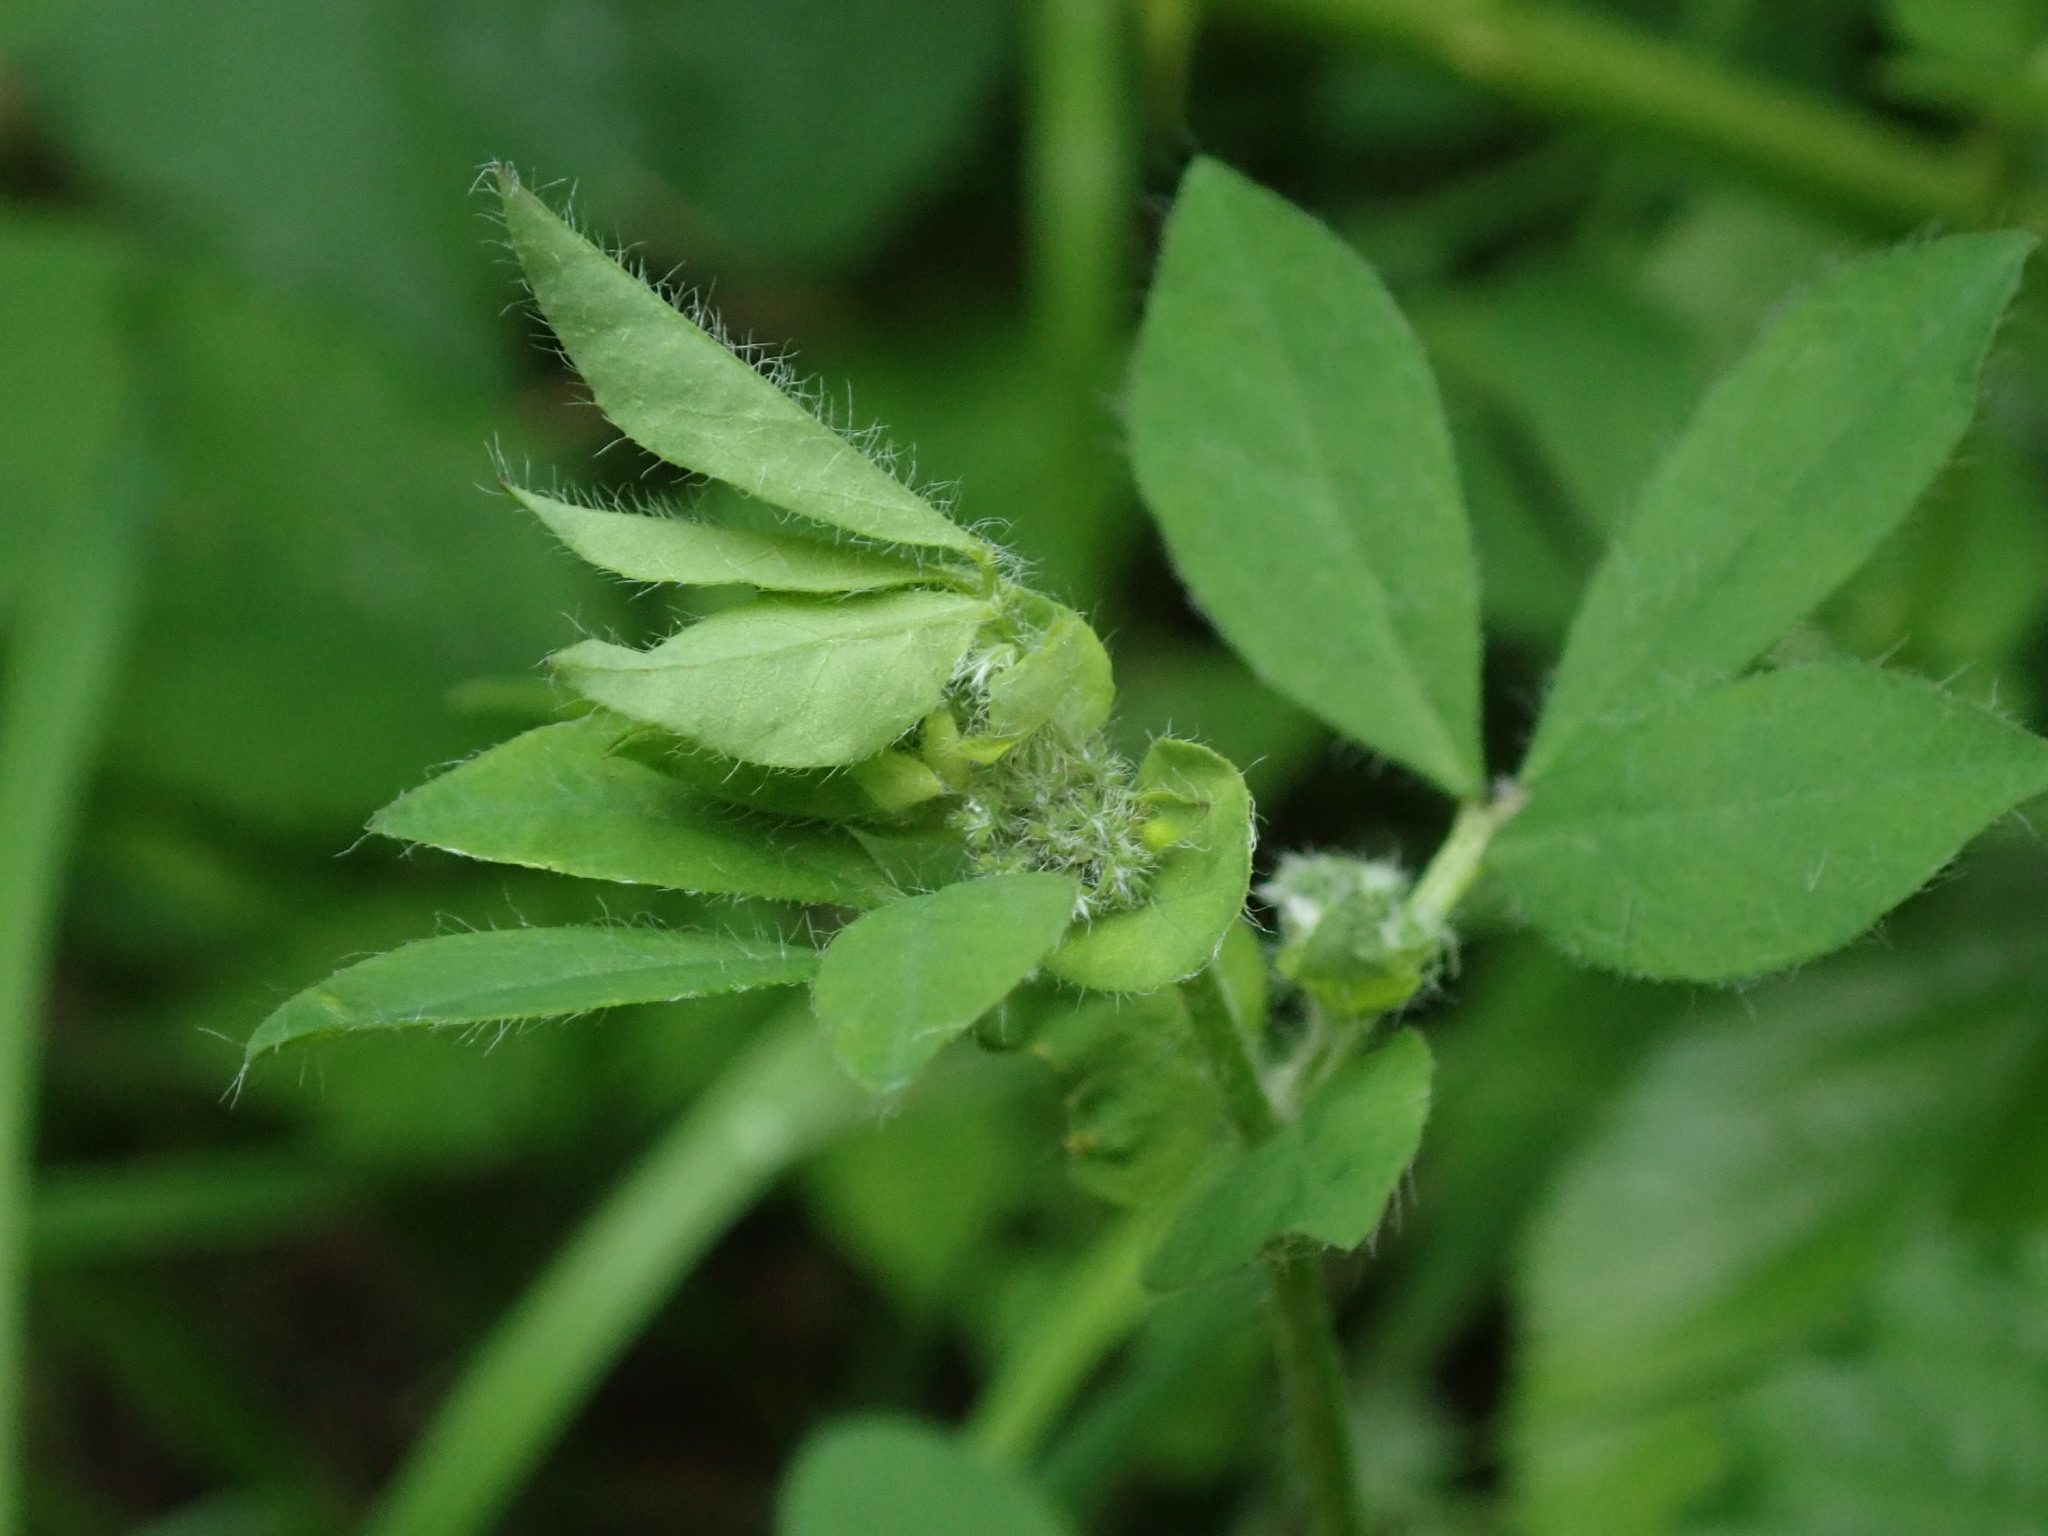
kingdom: Plantae
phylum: Tracheophyta
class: Magnoliopsida
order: Fabales
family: Fabaceae
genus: Lotus
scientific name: Lotus pedunculatus
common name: Greater birdsfoot-trefoil
